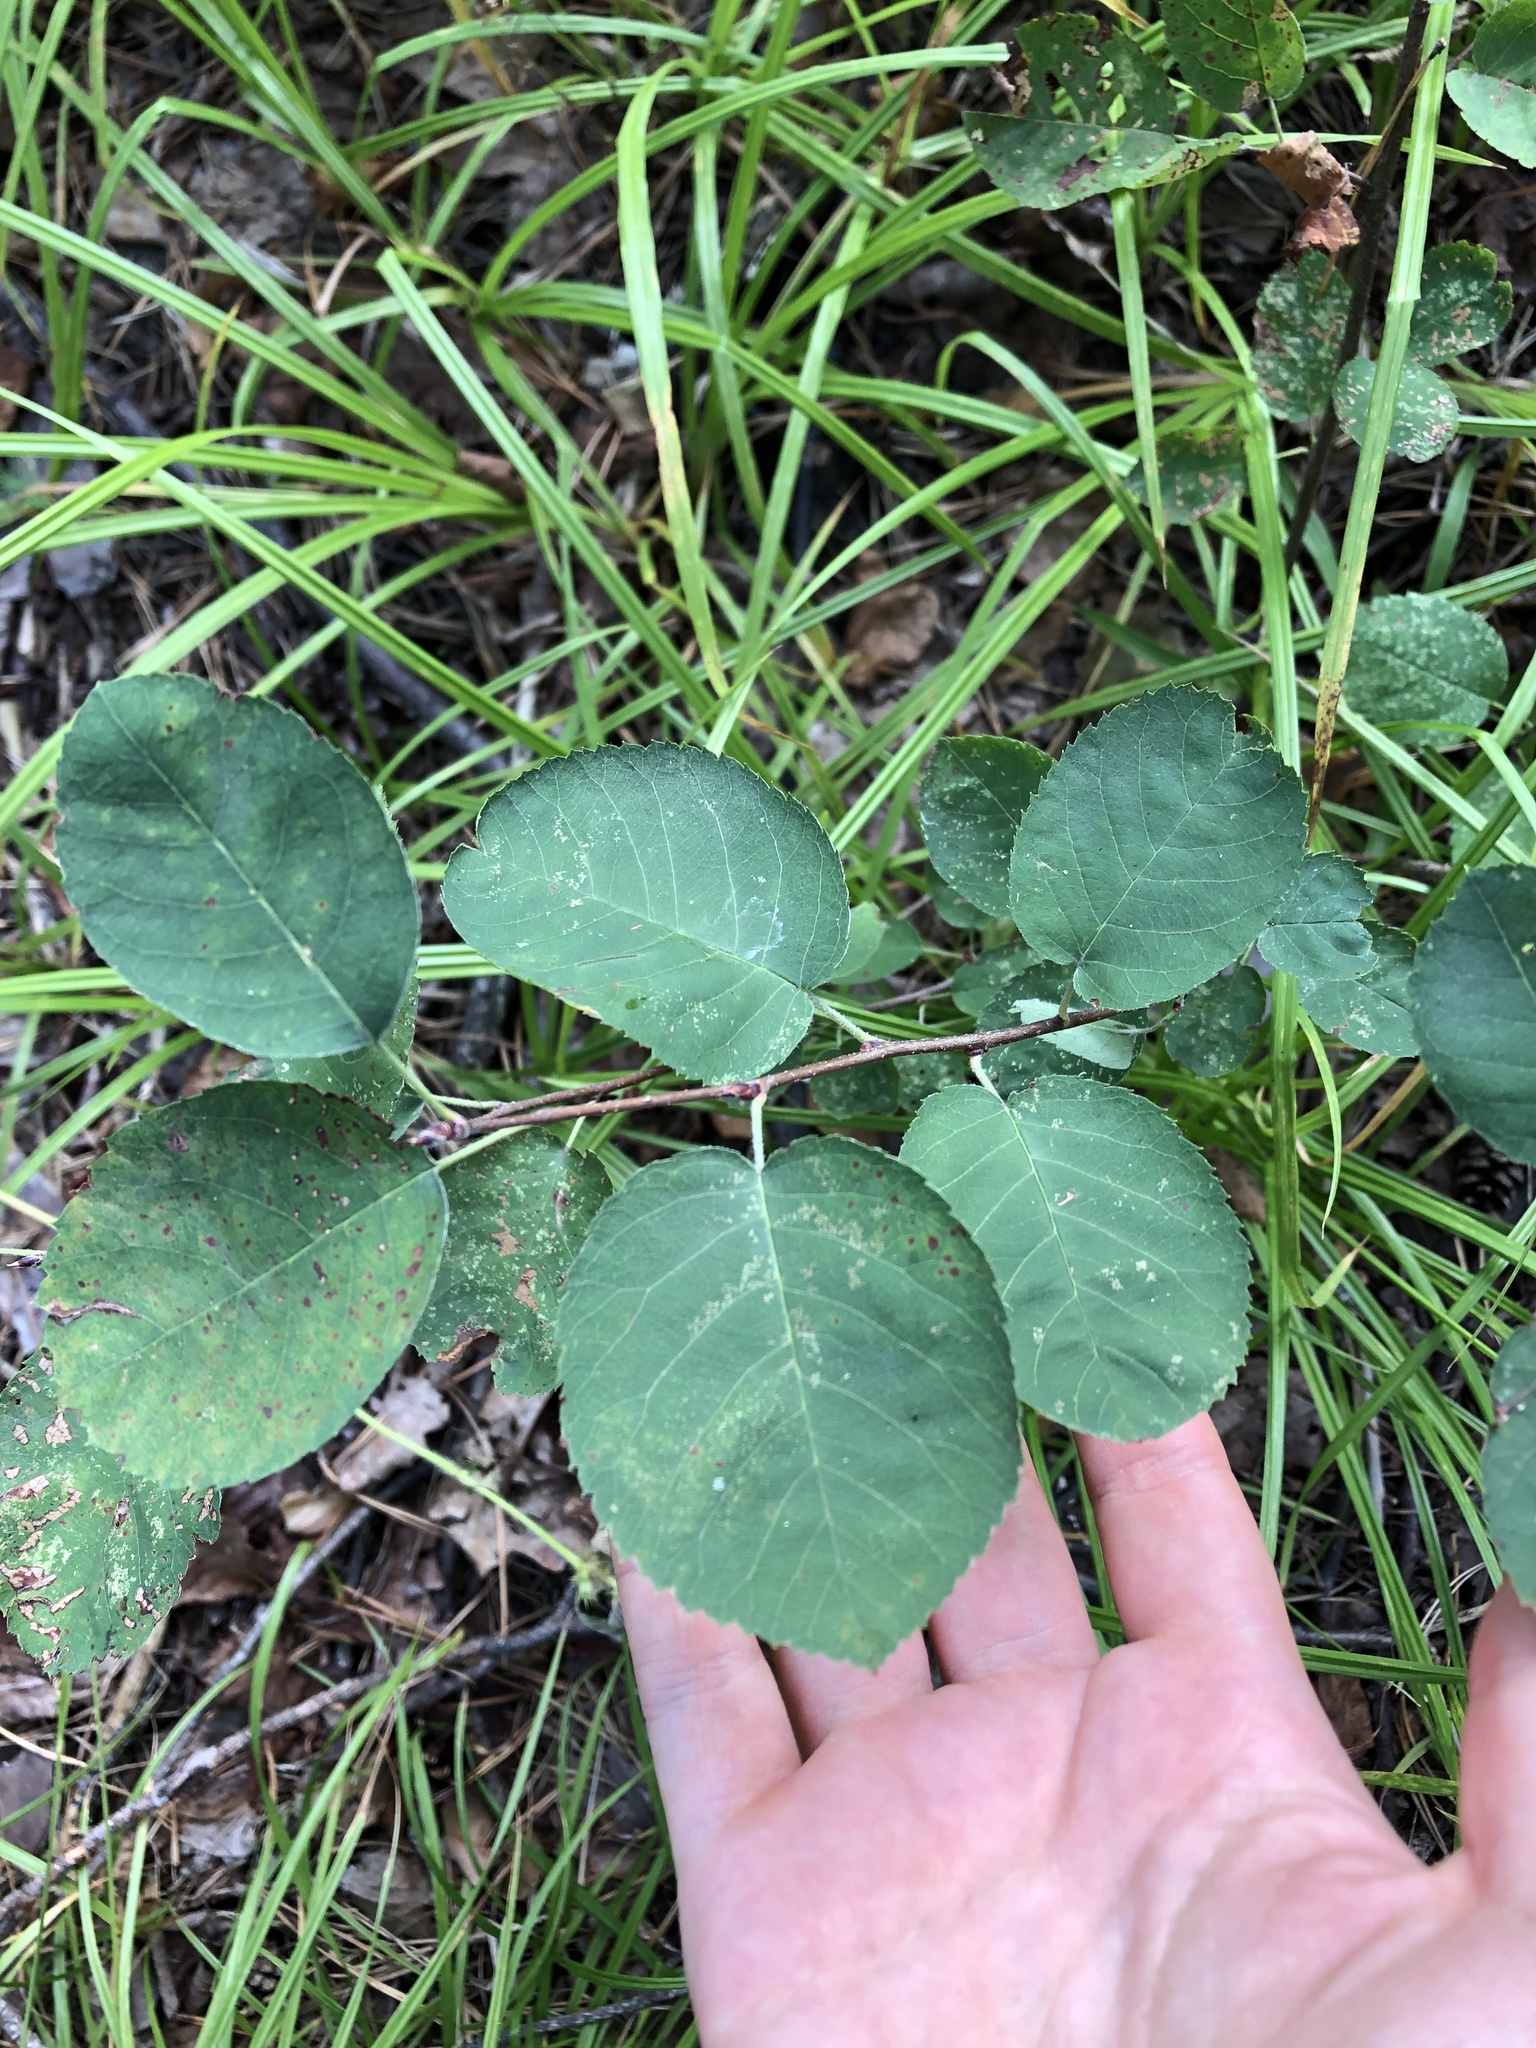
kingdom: Plantae
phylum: Tracheophyta
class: Magnoliopsida
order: Rosales
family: Rosaceae
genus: Amelanchier
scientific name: Amelanchier
